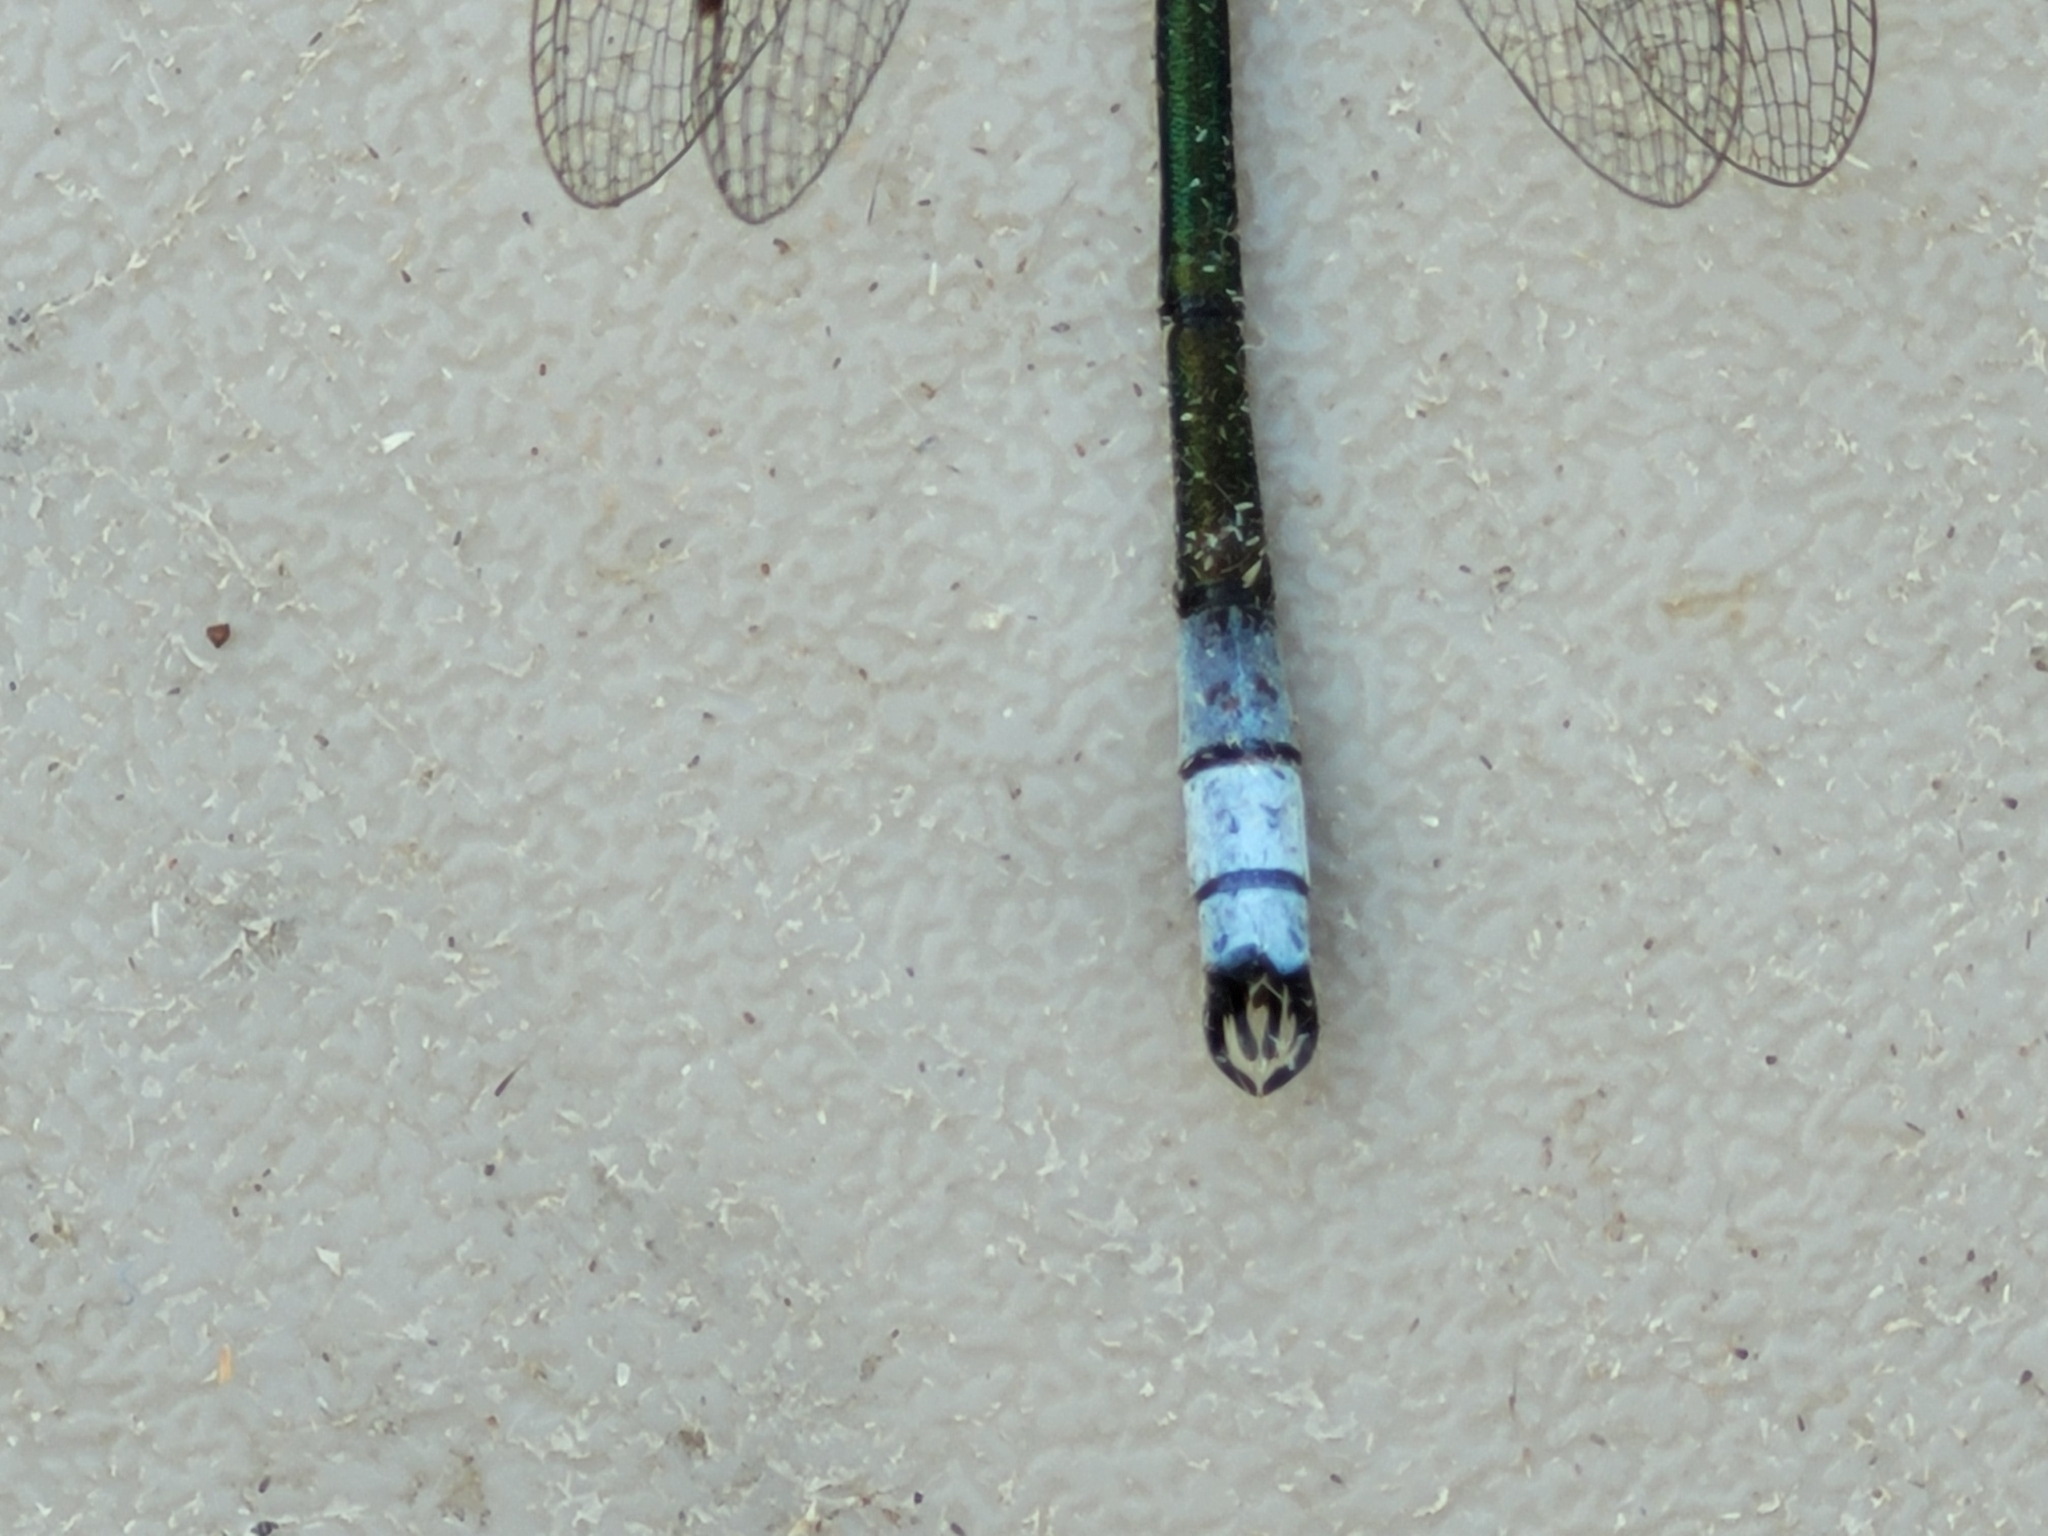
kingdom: Animalia
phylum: Arthropoda
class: Insecta
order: Odonata
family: Lestidae
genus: Lestes
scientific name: Lestes disjunctus
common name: Northern spreadwing
